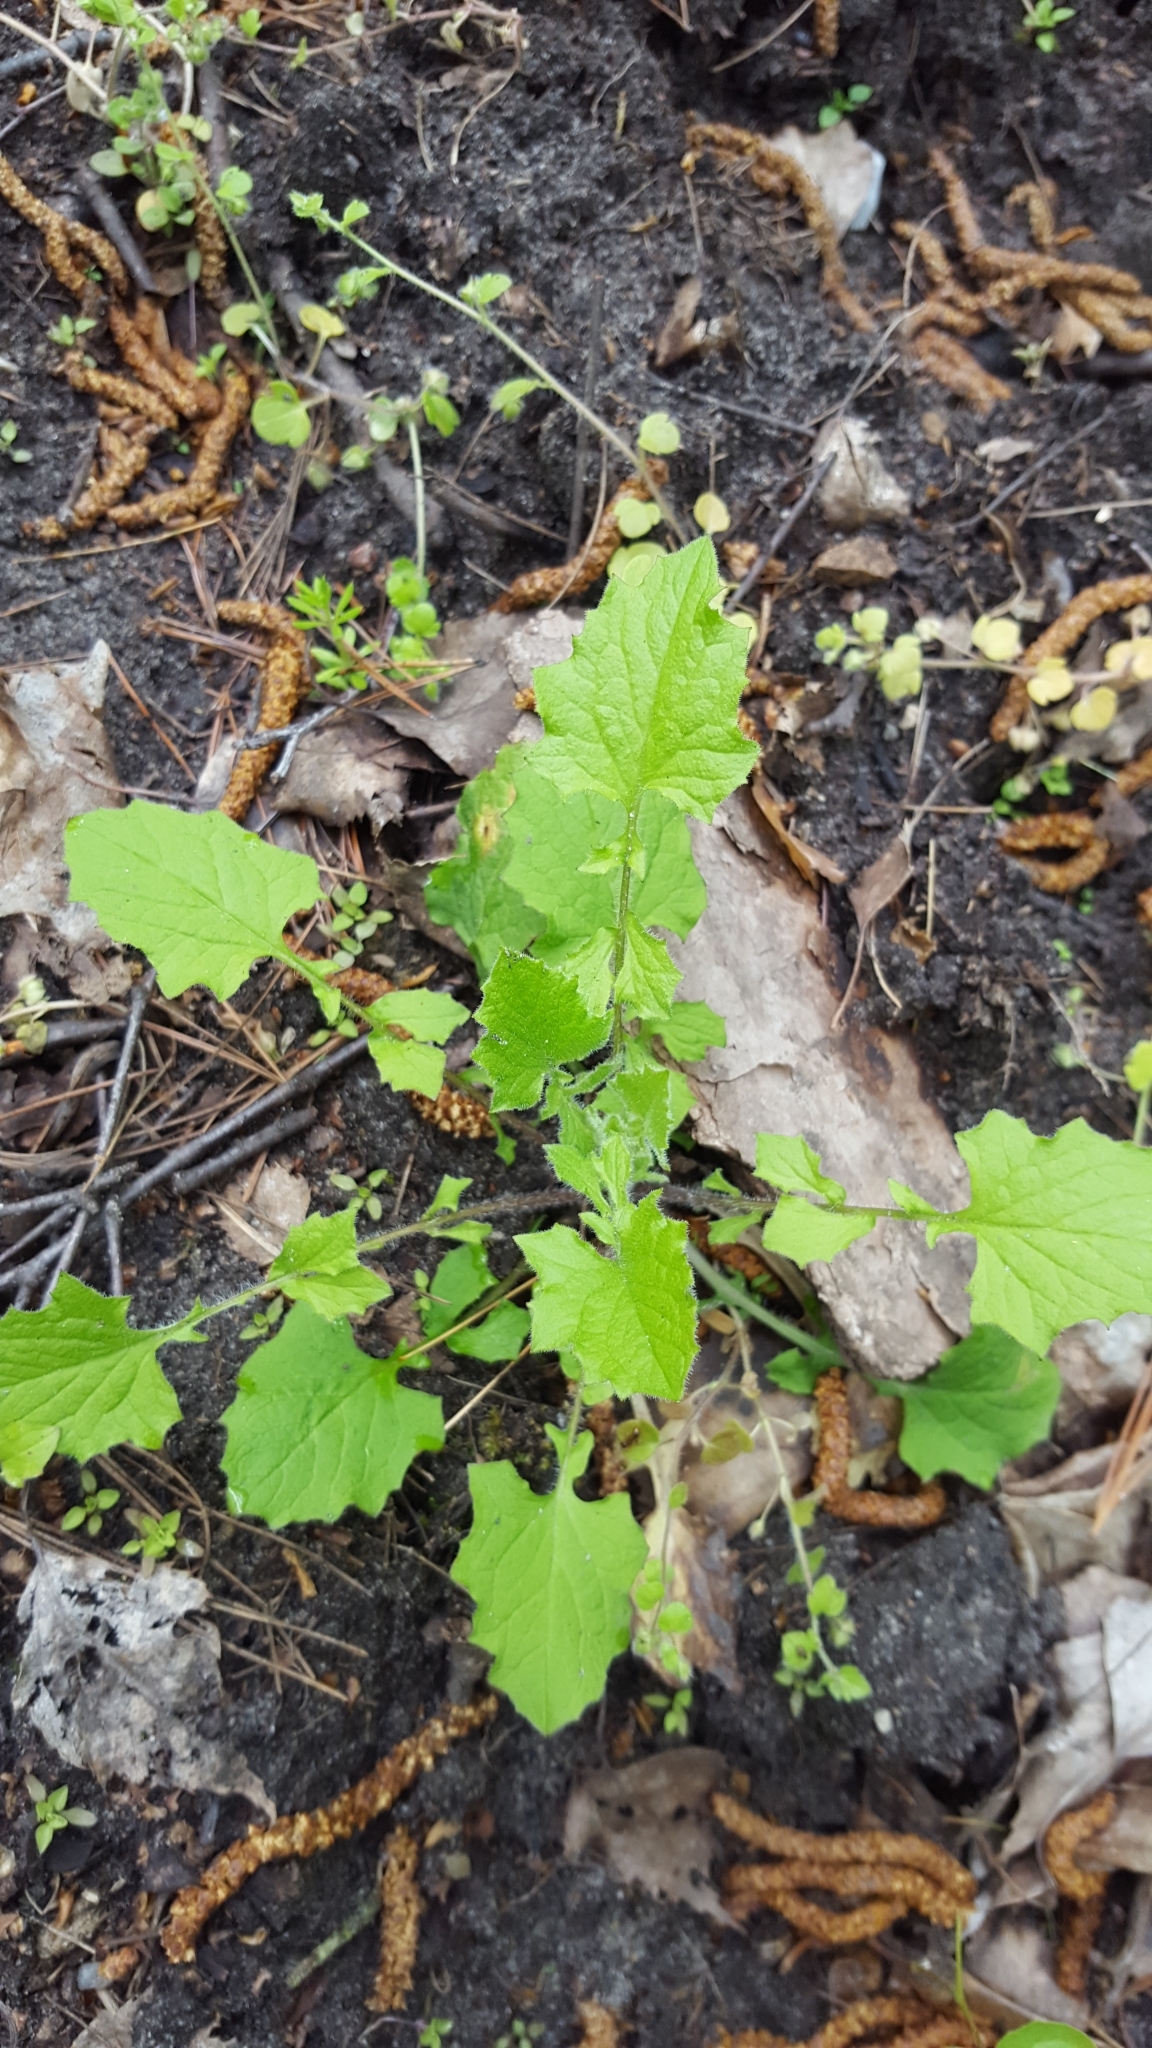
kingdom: Plantae
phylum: Tracheophyta
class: Magnoliopsida
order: Asterales
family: Asteraceae
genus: Lapsana
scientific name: Lapsana communis
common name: Nipplewort
